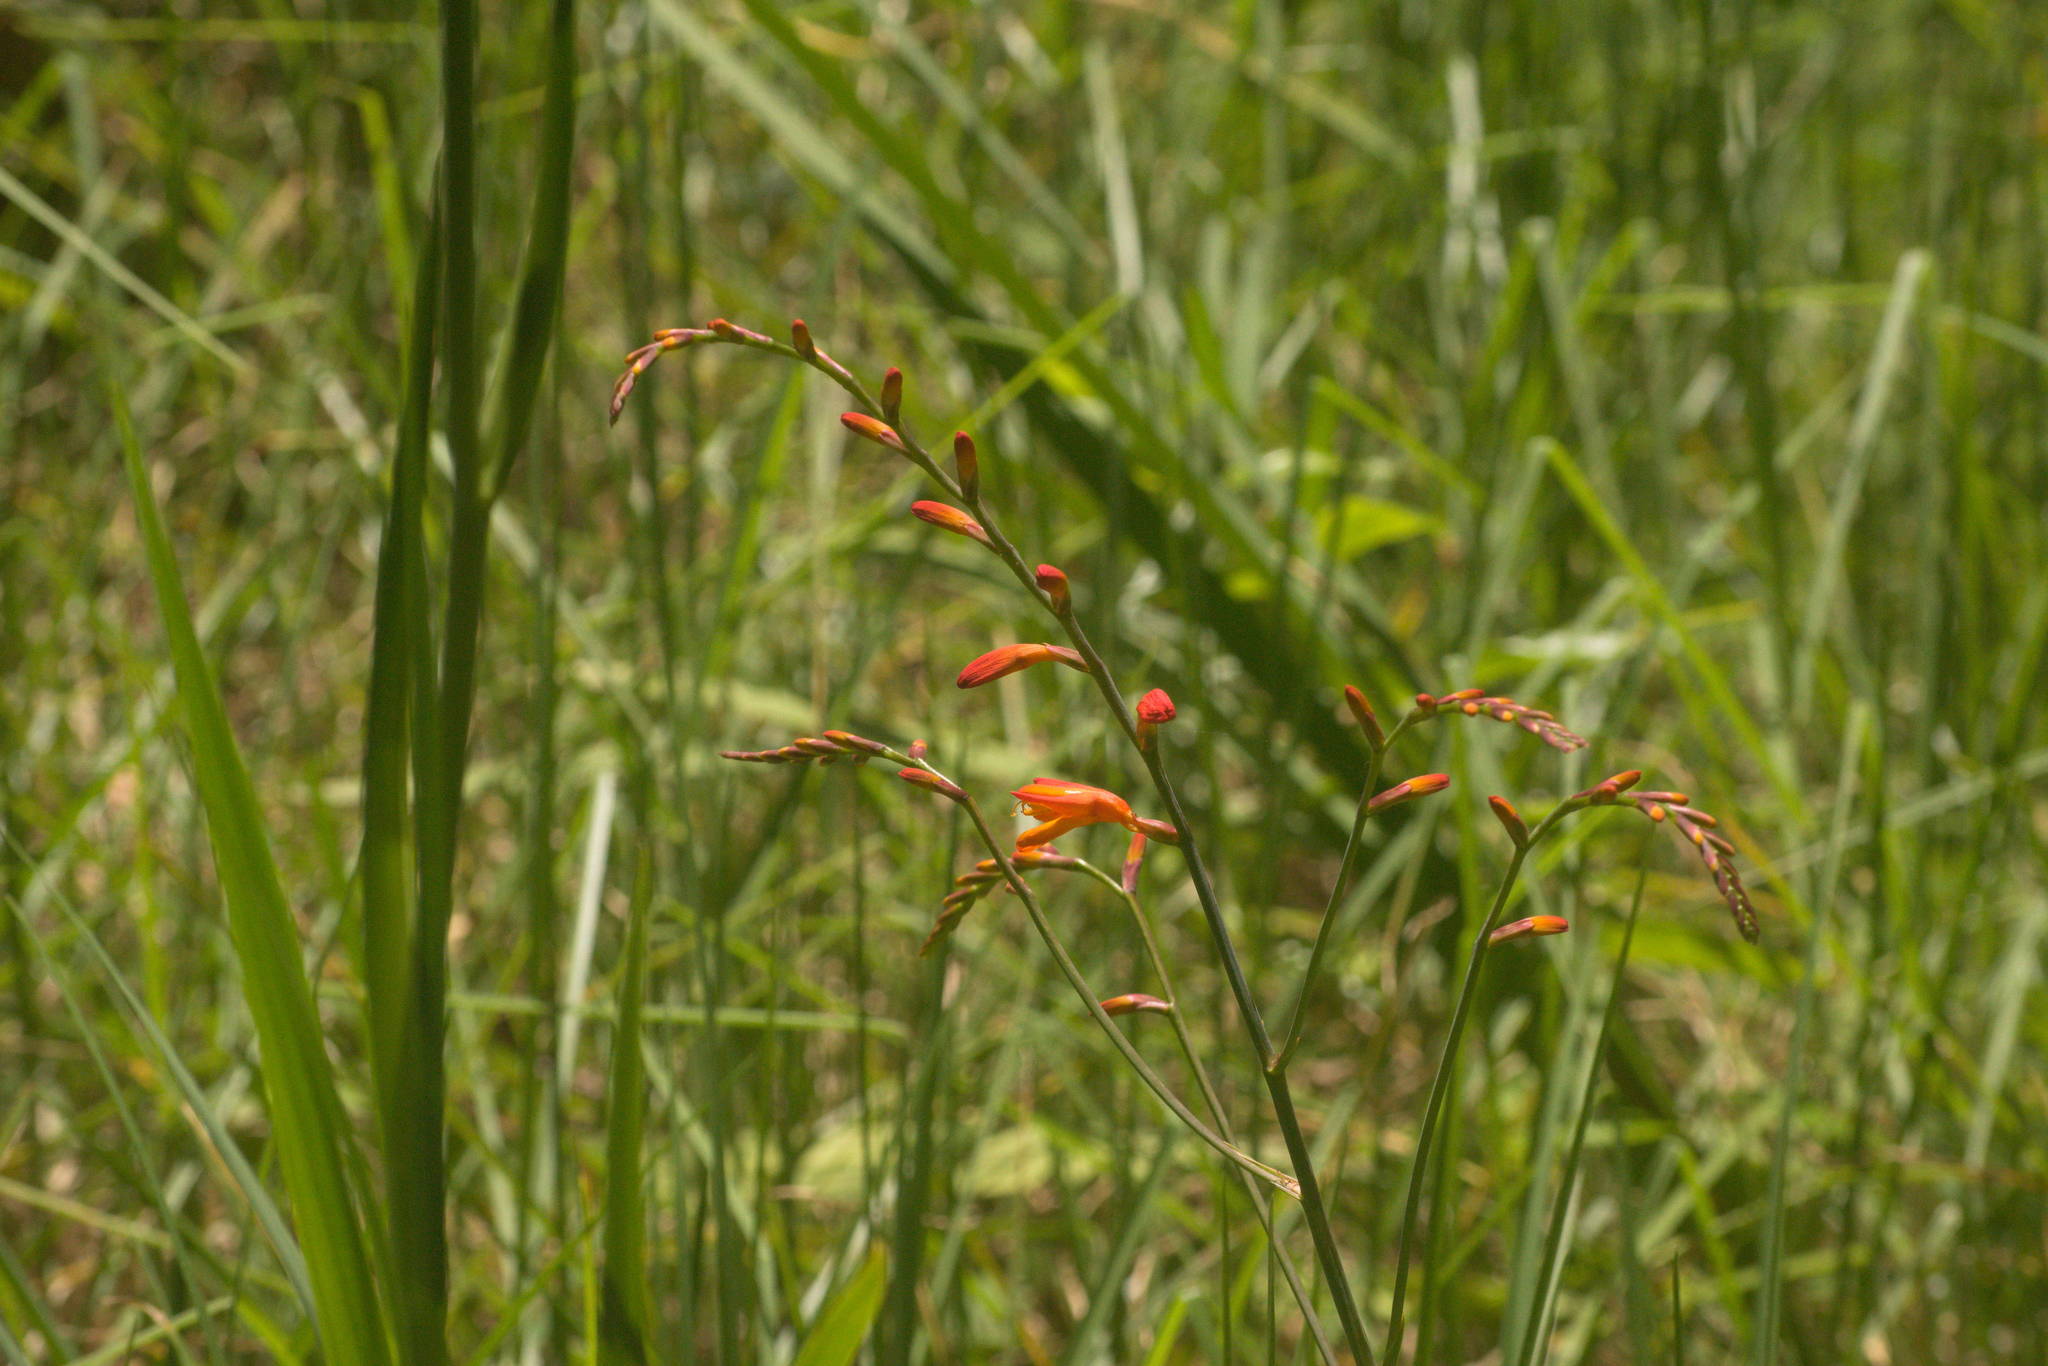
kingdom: Plantae
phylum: Tracheophyta
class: Liliopsida
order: Asparagales
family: Iridaceae
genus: Crocosmia
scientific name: Crocosmia crocosmiiflora
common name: Montbretia
